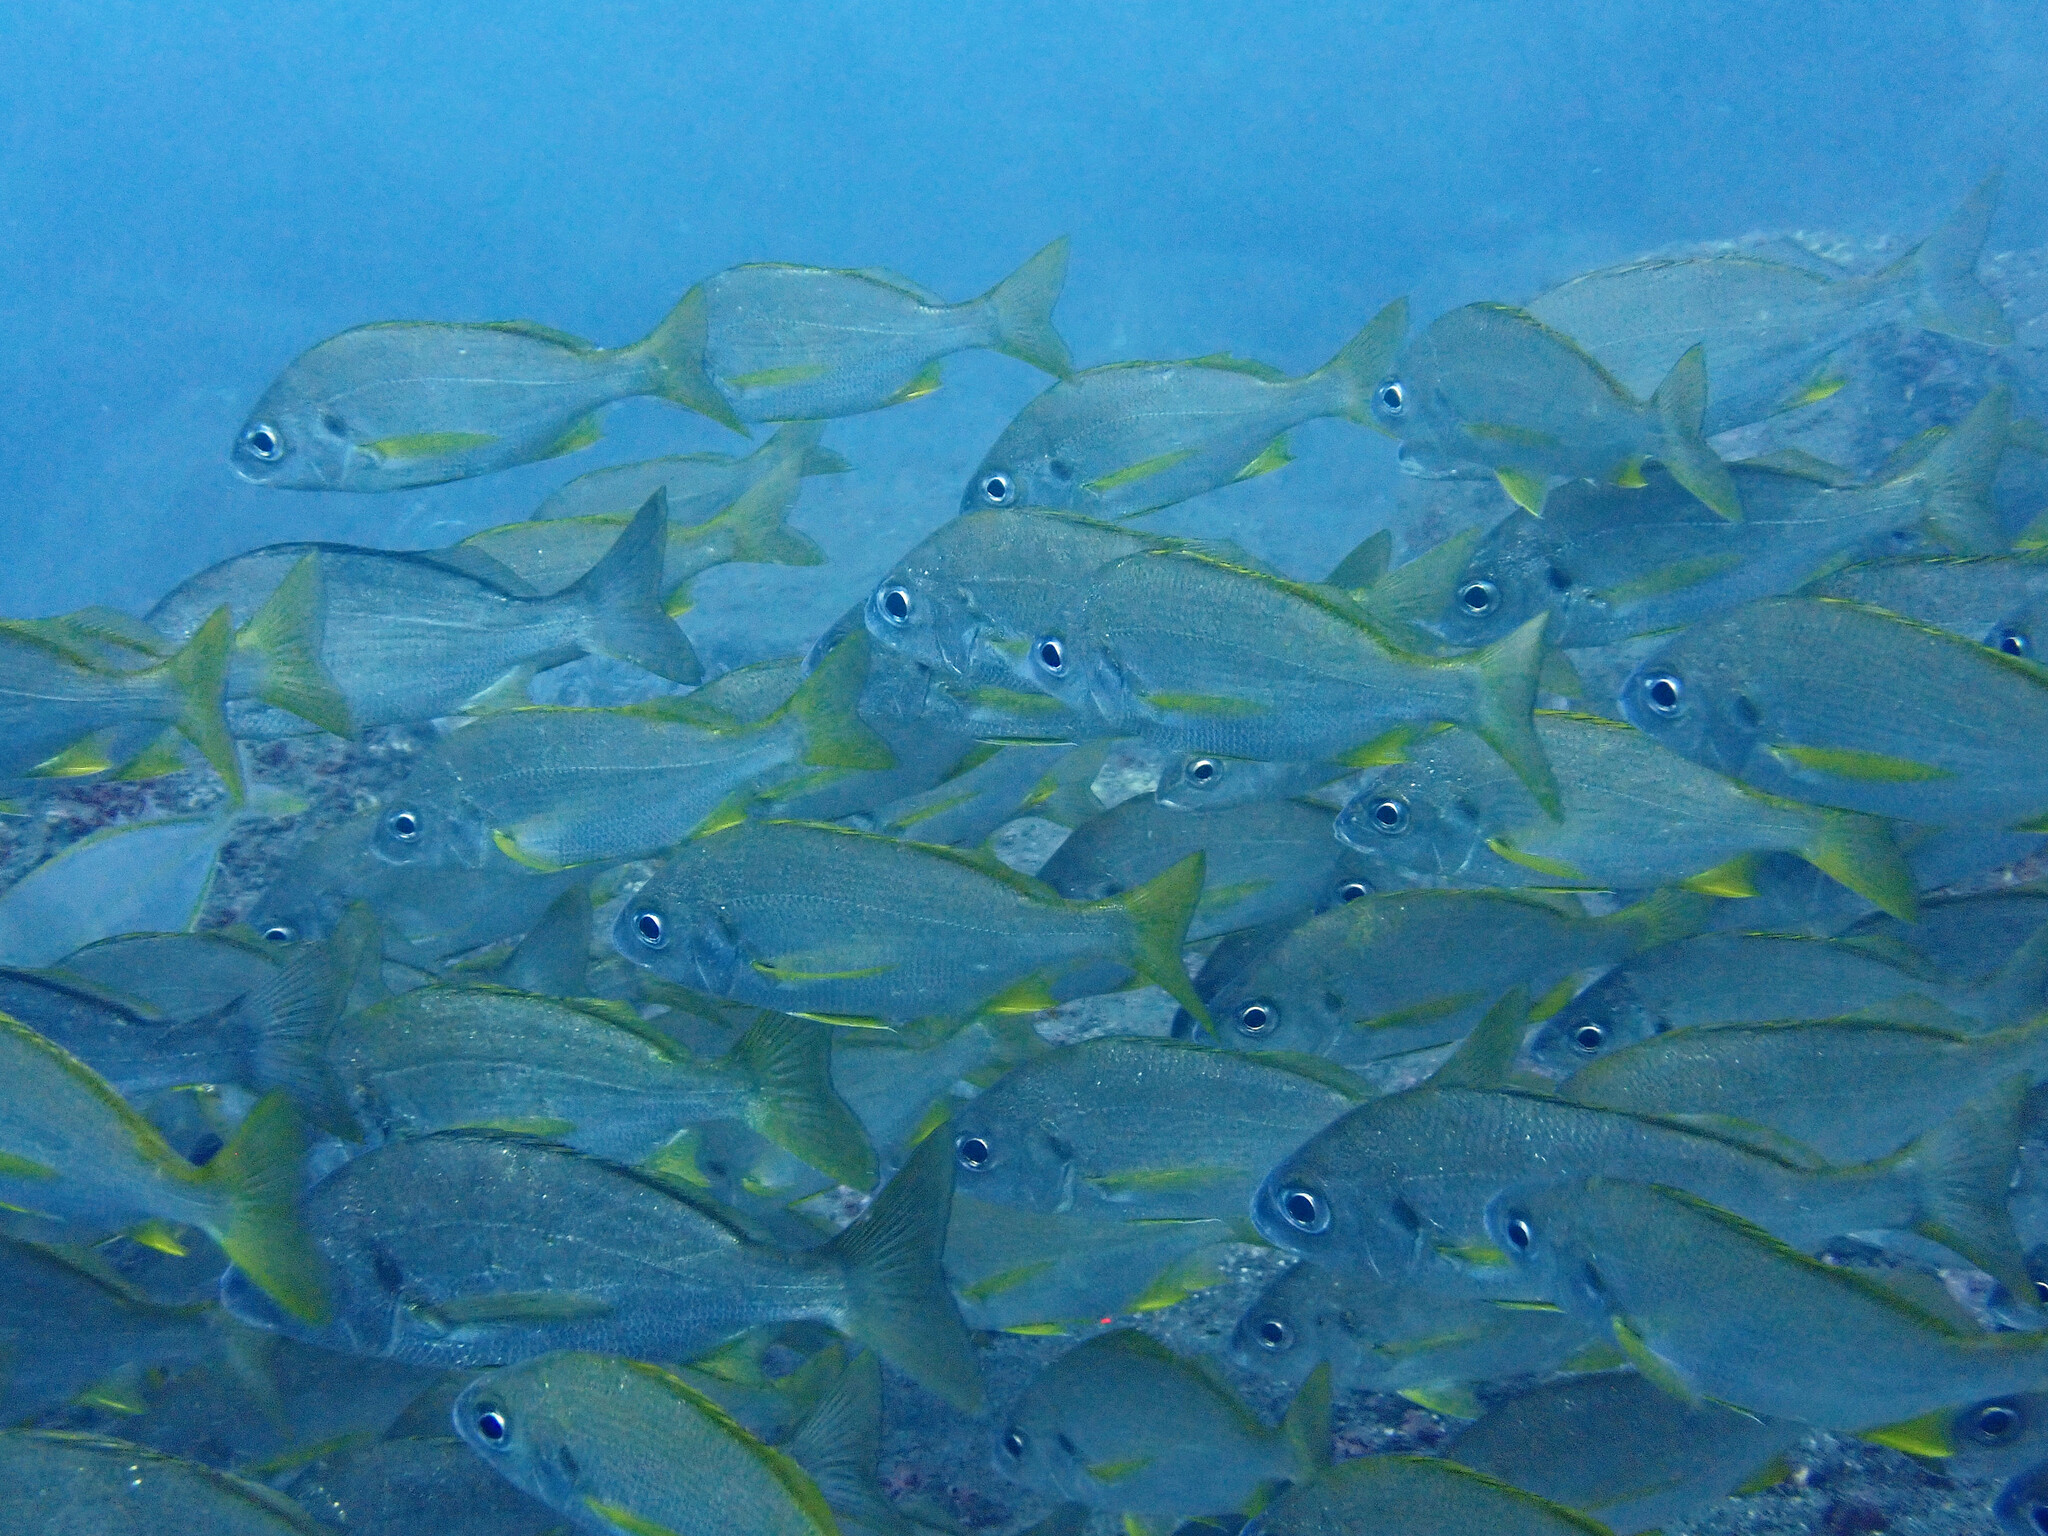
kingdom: Animalia
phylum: Chordata
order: Perciformes
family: Haemulidae
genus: Pomadasys
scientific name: Pomadasys incisus
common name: Bastard grunt
